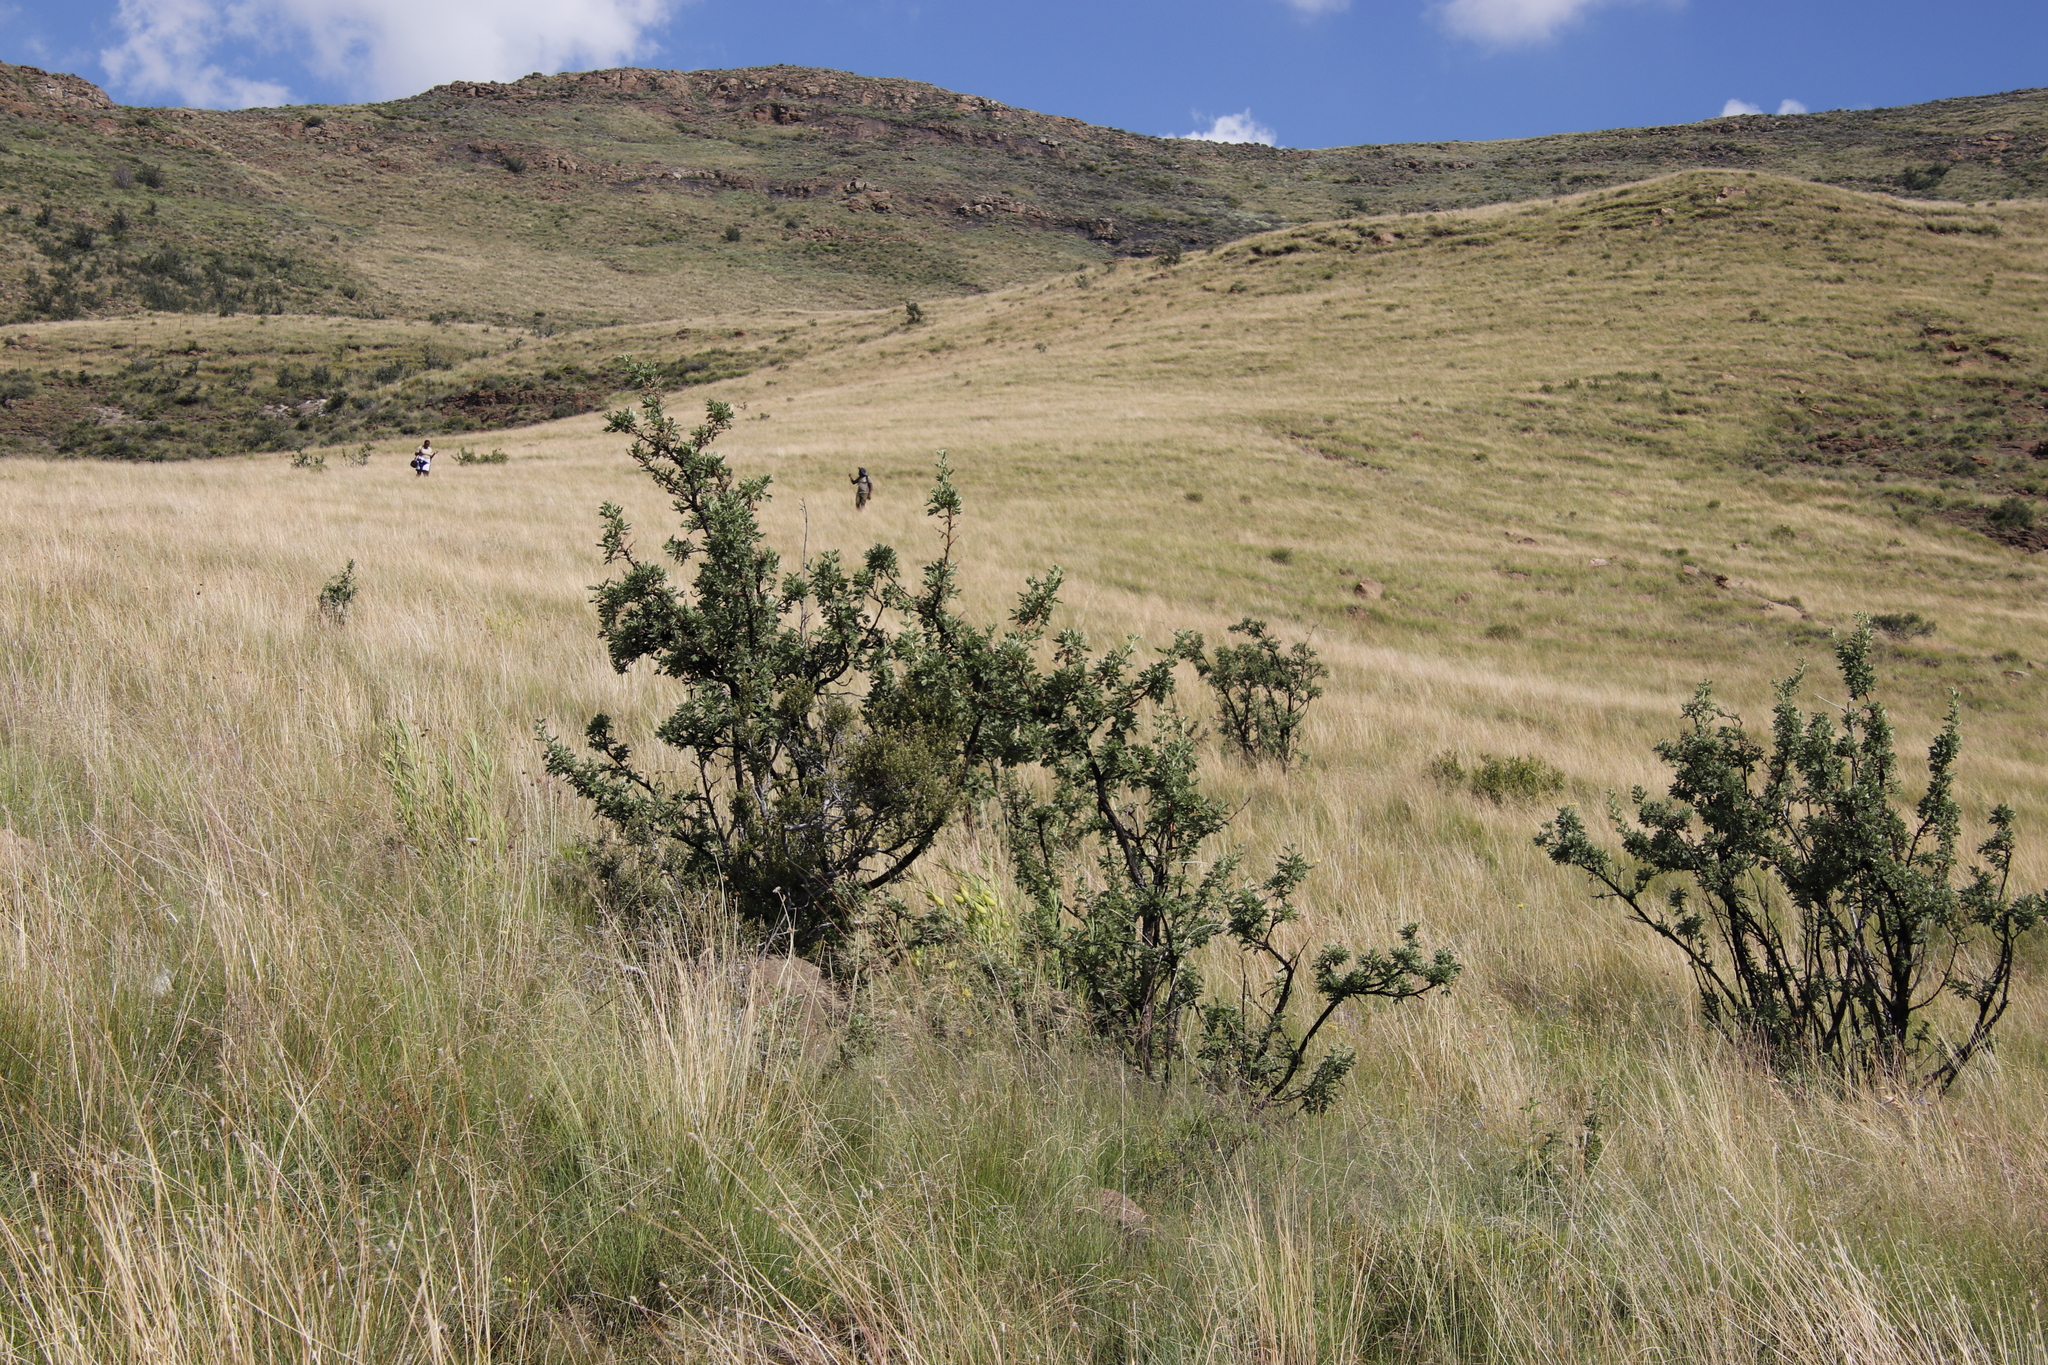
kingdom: Plantae
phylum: Tracheophyta
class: Magnoliopsida
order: Rosales
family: Rosaceae
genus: Leucosidea
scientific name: Leucosidea sericea
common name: Oldwood
